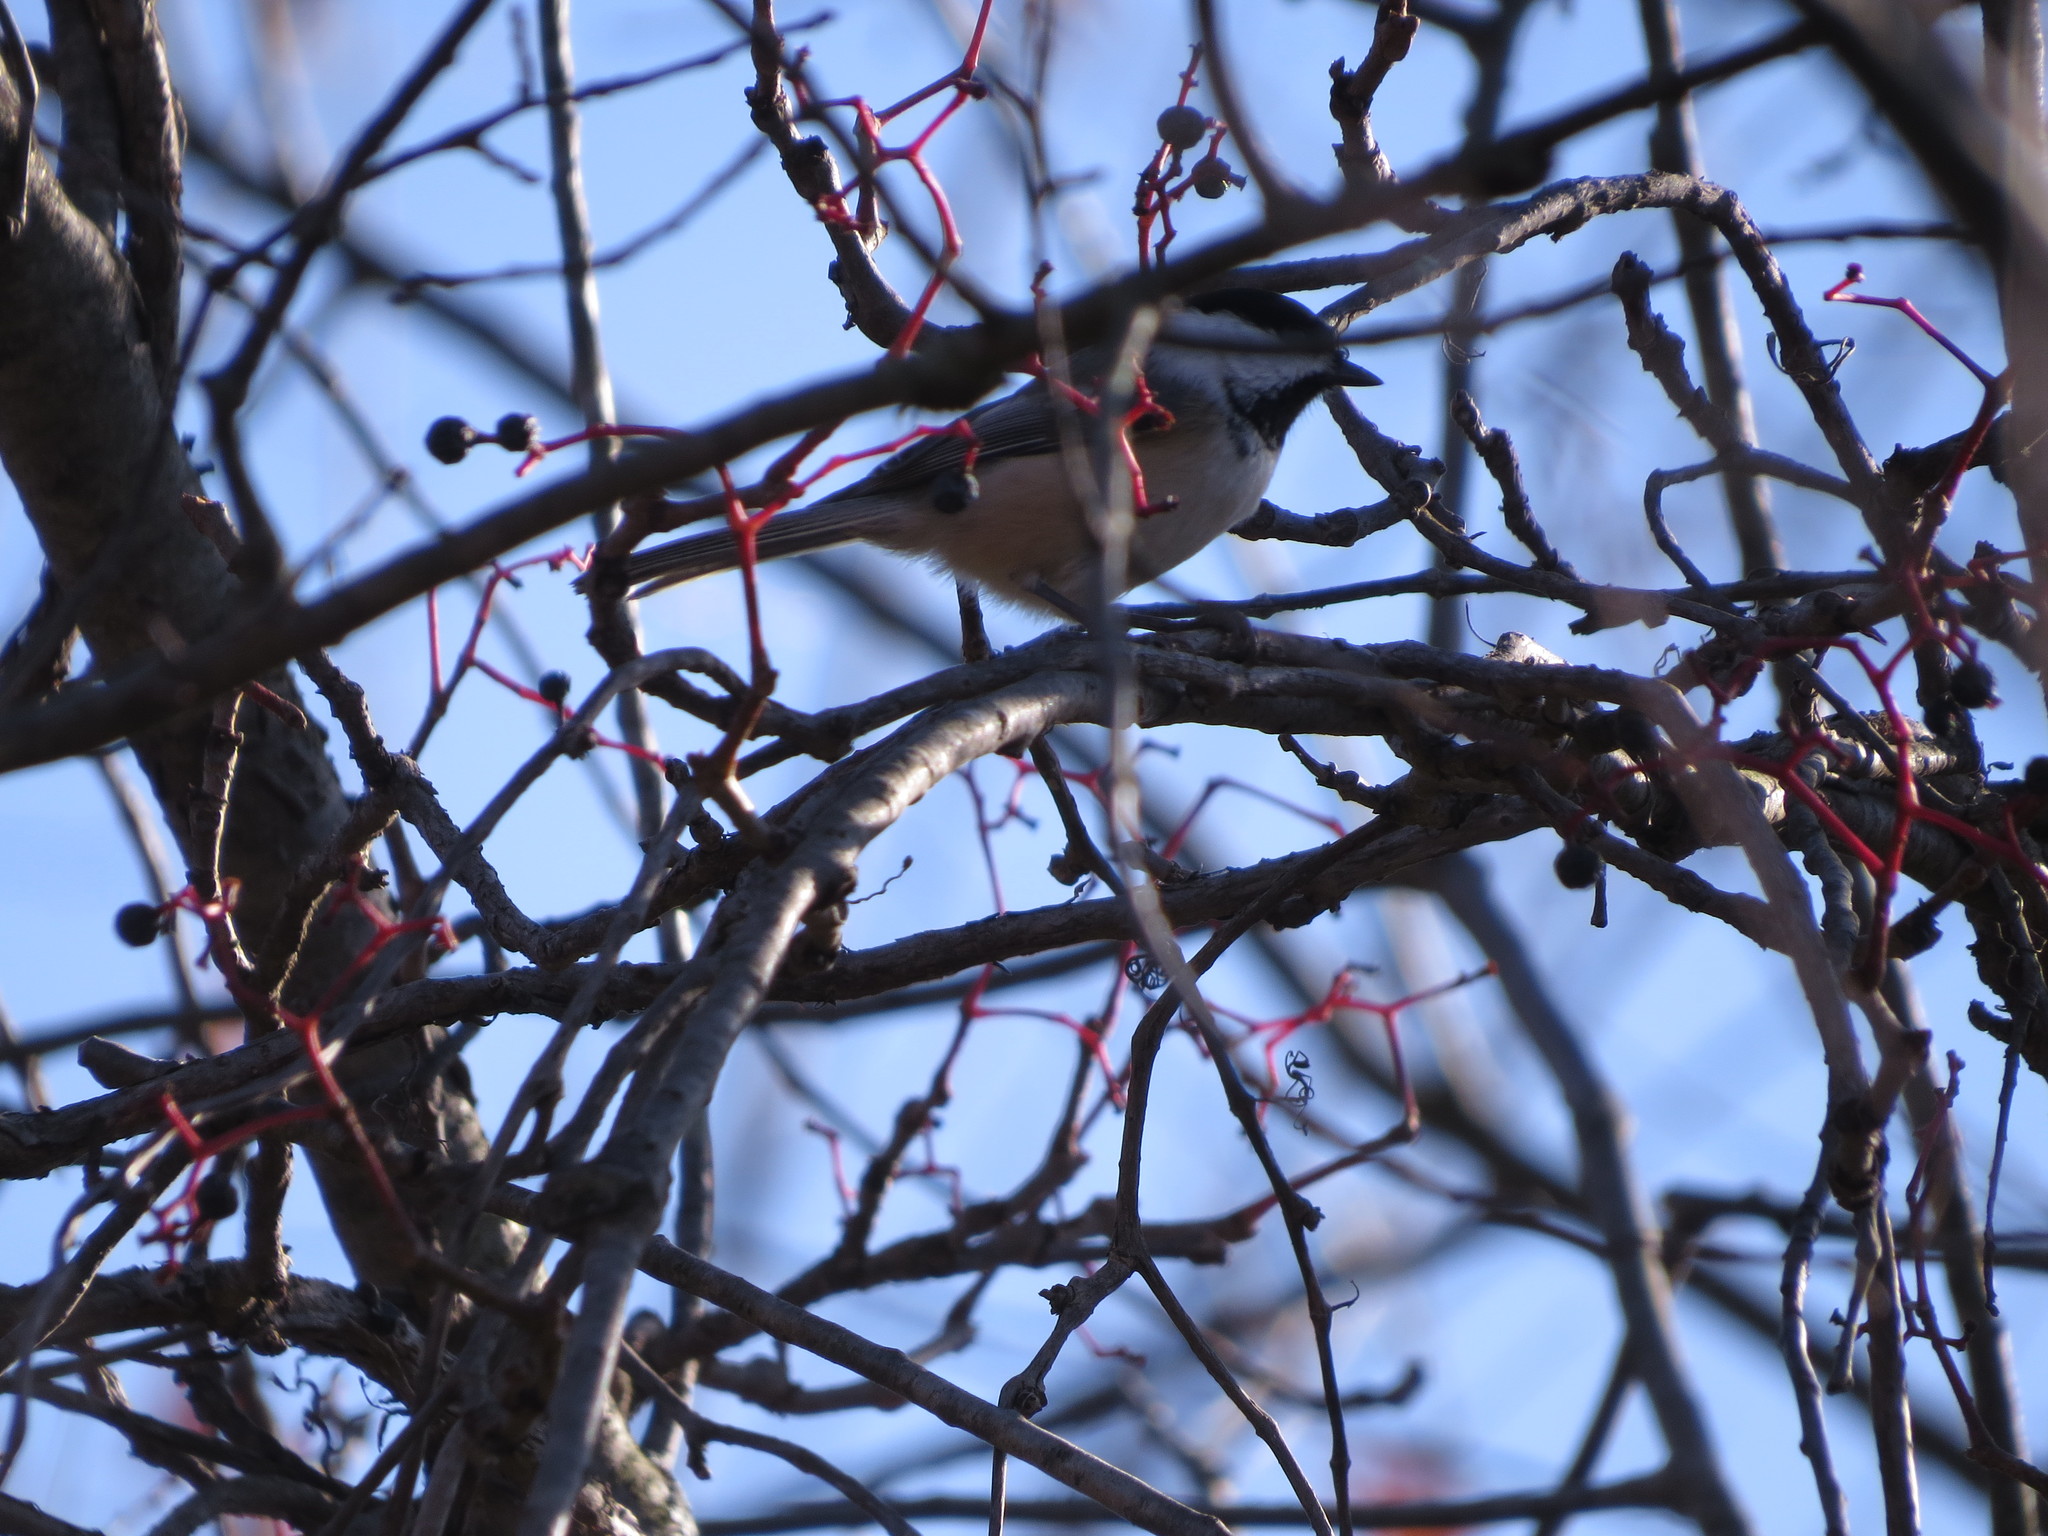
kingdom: Animalia
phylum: Chordata
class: Aves
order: Passeriformes
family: Paridae
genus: Poecile
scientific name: Poecile atricapillus
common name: Black-capped chickadee
